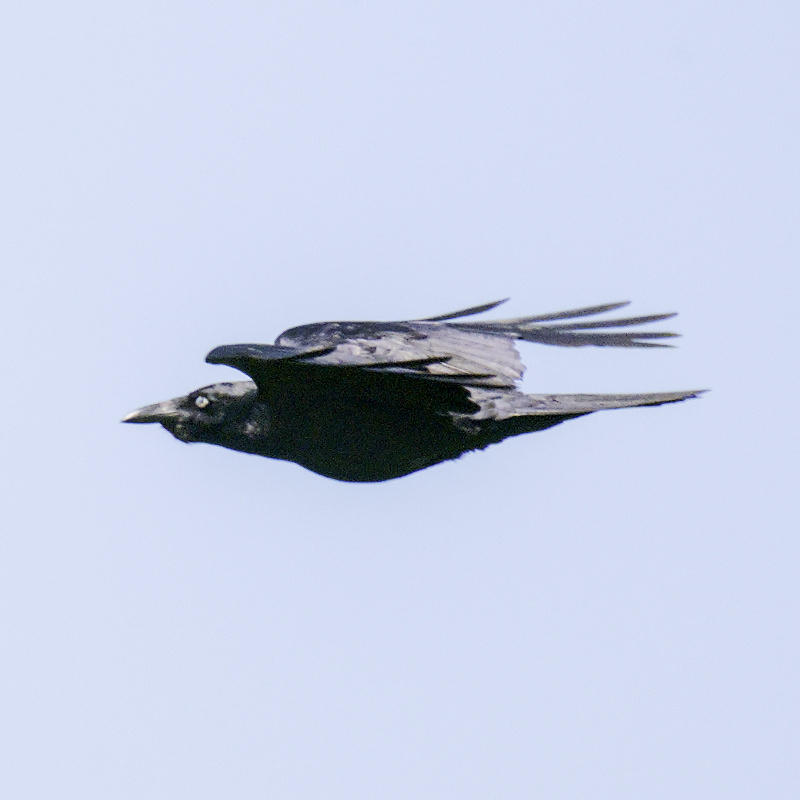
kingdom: Animalia
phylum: Chordata
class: Aves
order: Passeriformes
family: Corvidae
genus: Corvus
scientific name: Corvus mellori
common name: Little raven
